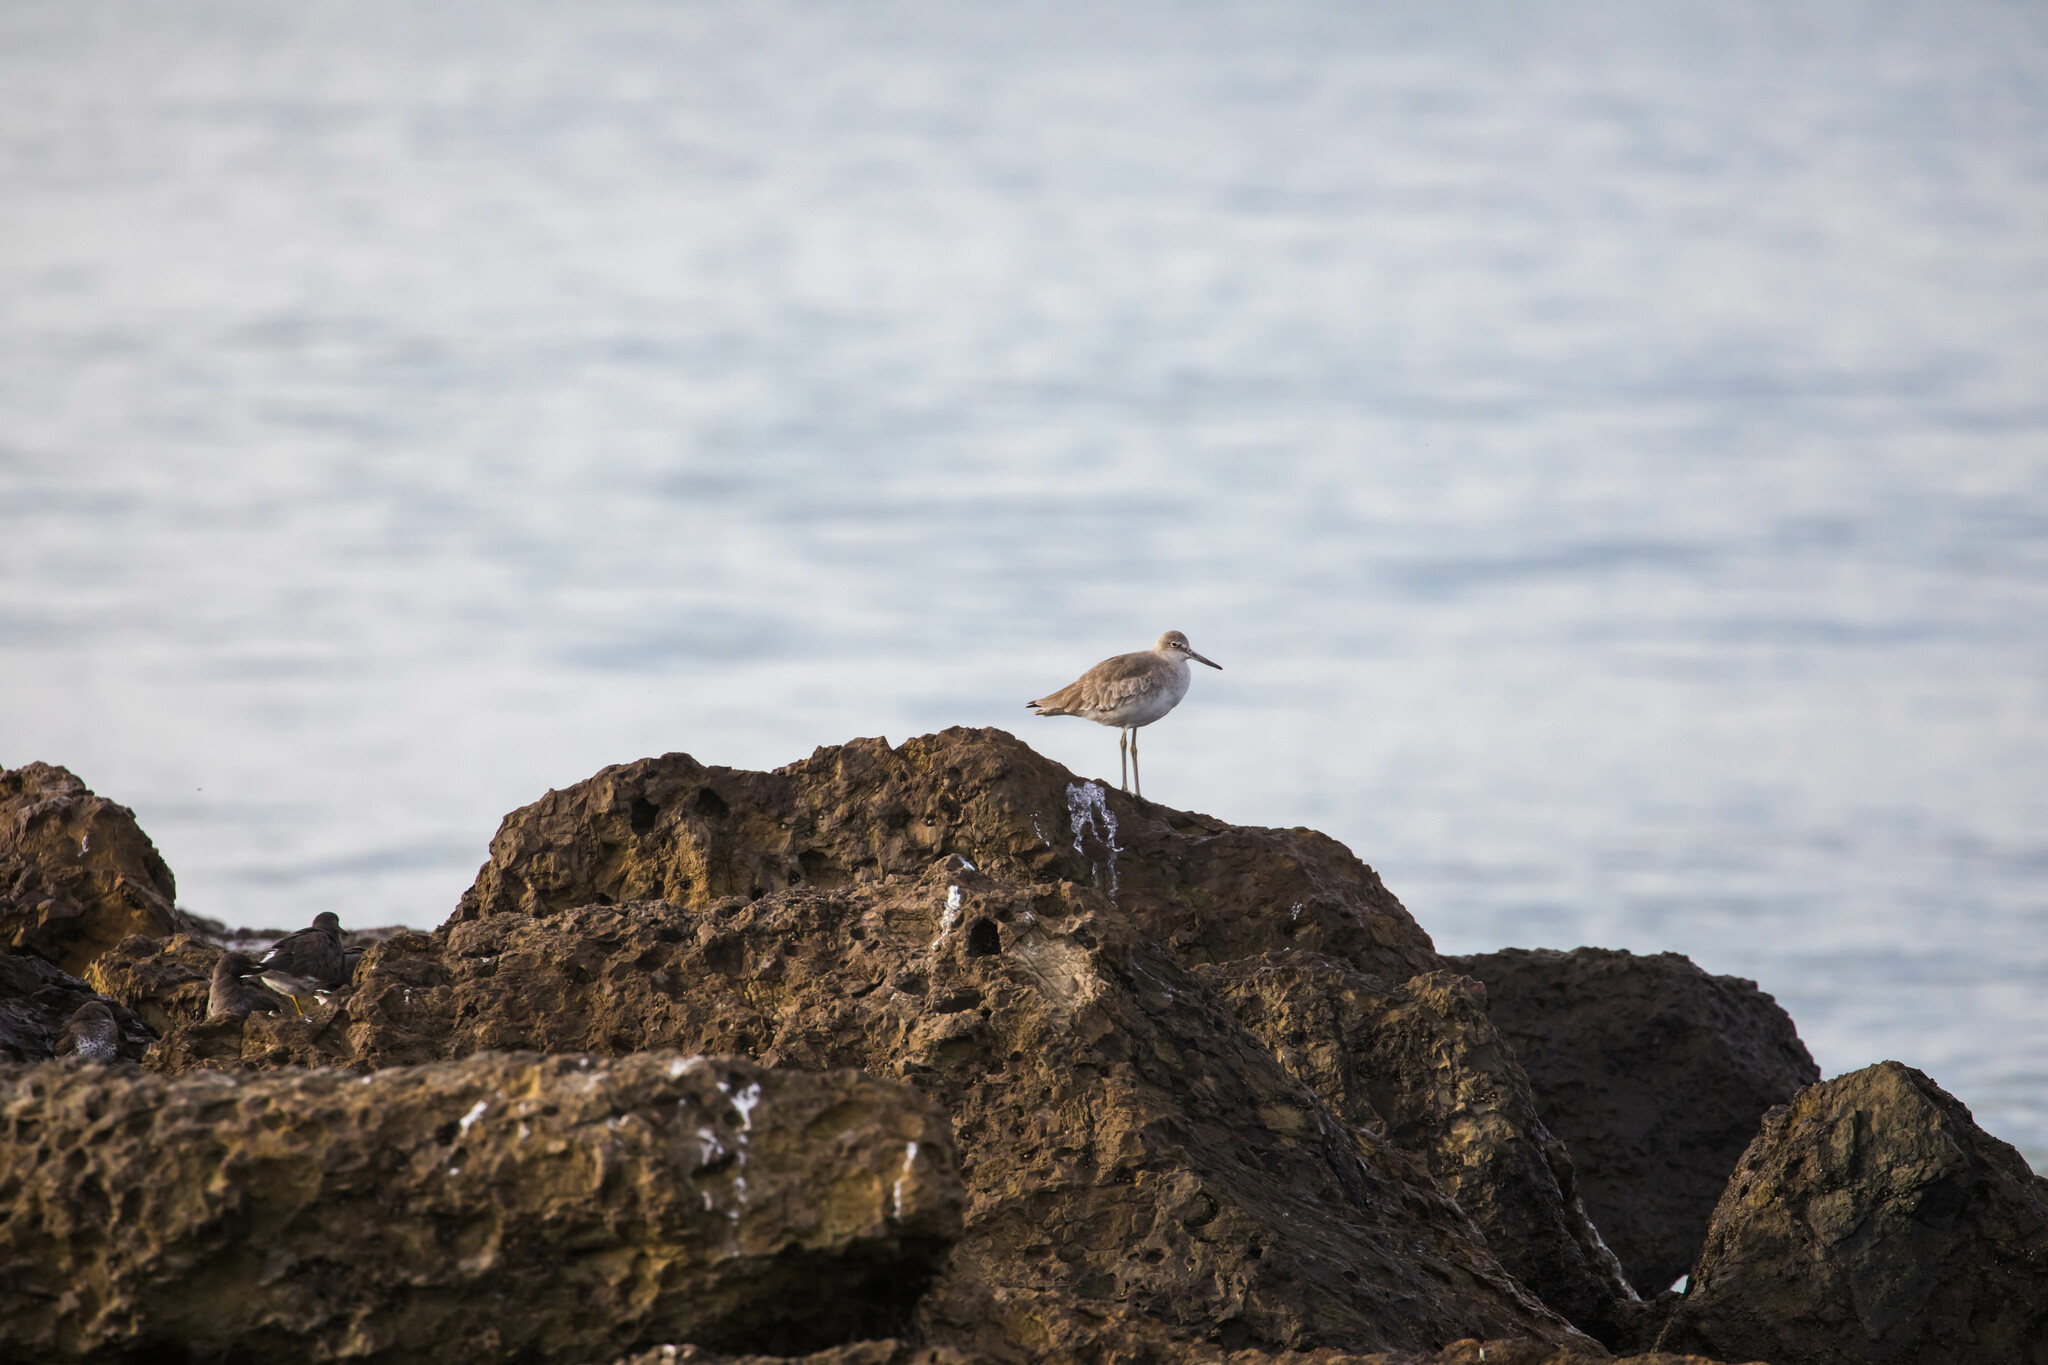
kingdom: Animalia
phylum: Chordata
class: Aves
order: Charadriiformes
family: Scolopacidae
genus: Tringa
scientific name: Tringa semipalmata
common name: Willet
